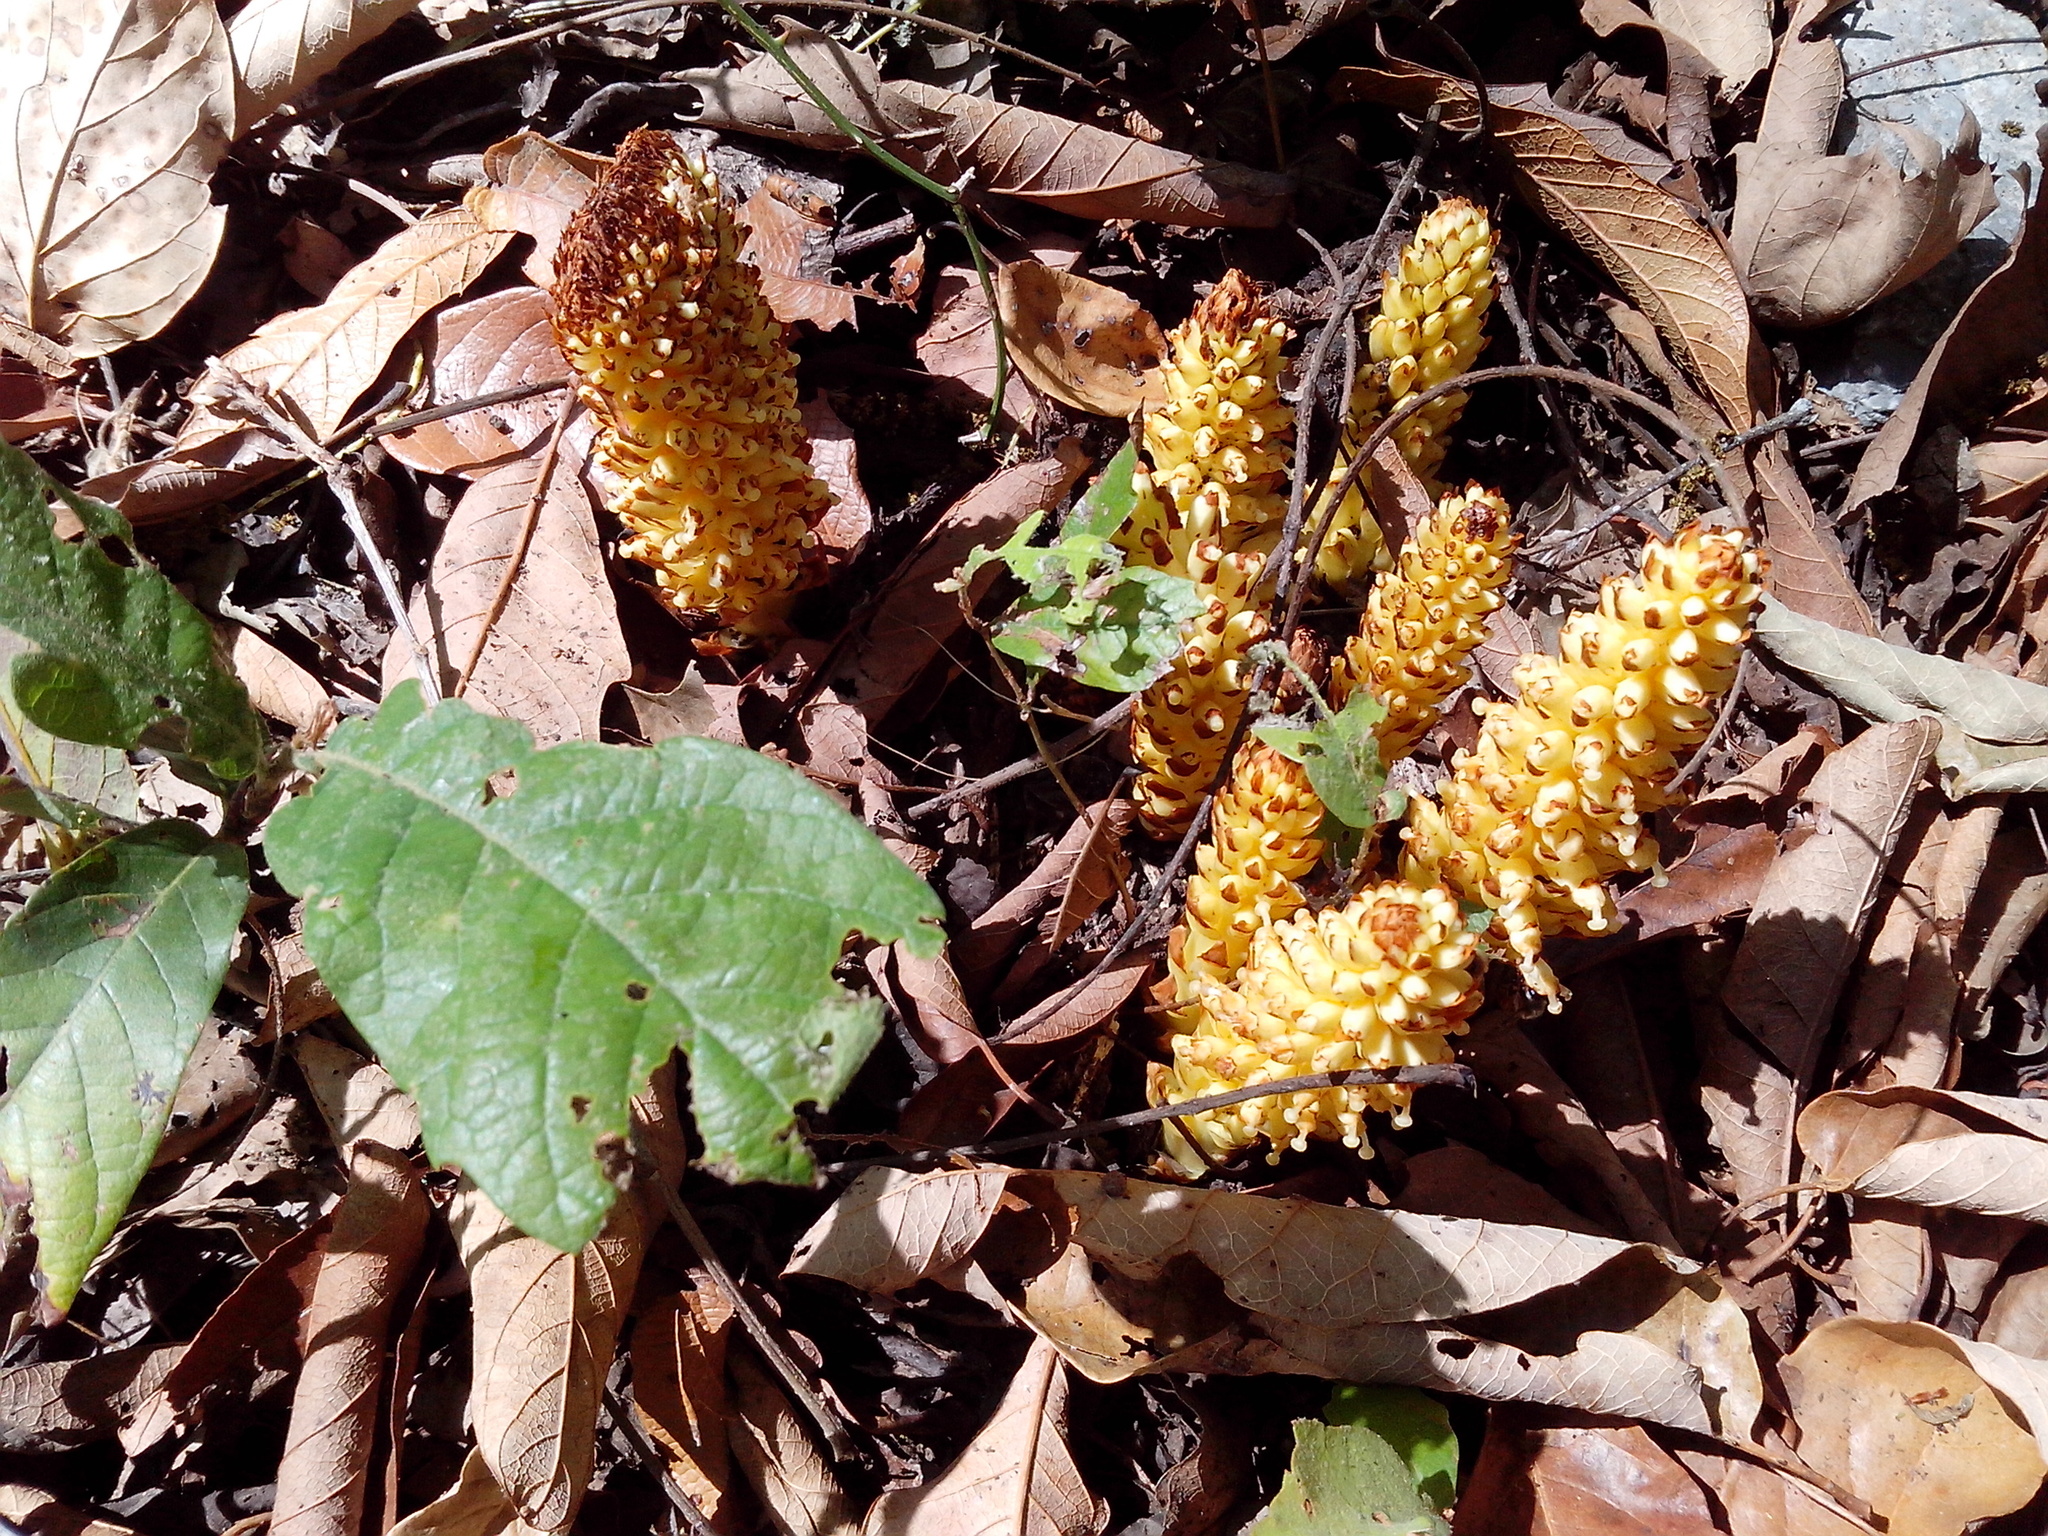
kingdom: Plantae
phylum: Tracheophyta
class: Magnoliopsida
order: Lamiales
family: Orobanchaceae
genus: Conopholis
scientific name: Conopholis alpina
